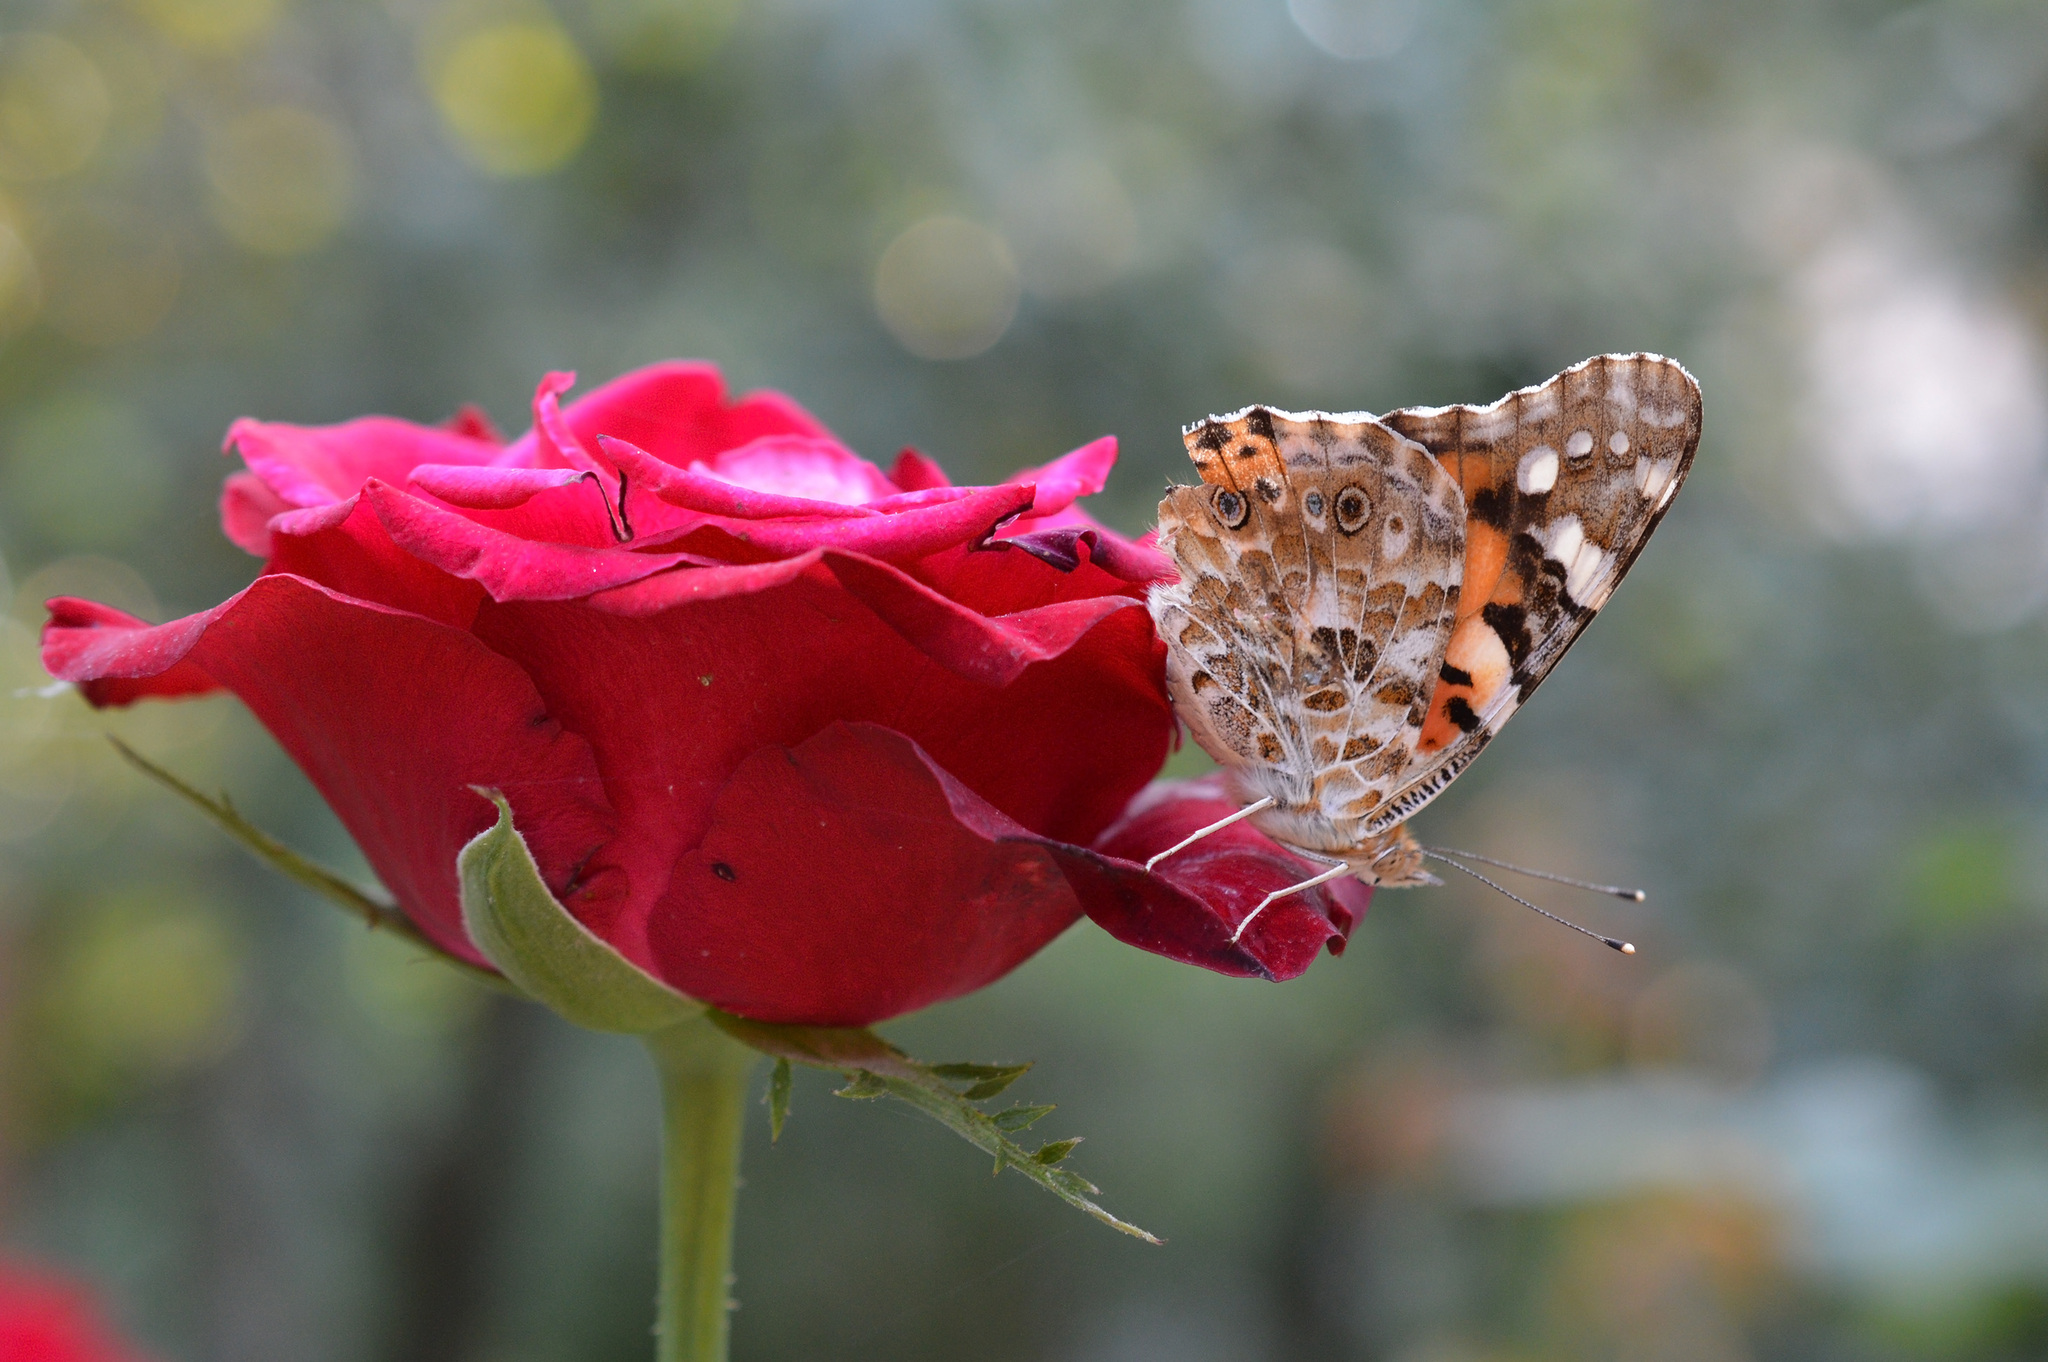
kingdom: Animalia
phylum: Arthropoda
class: Insecta
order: Lepidoptera
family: Nymphalidae
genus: Vanessa
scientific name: Vanessa cardui
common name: Painted lady
